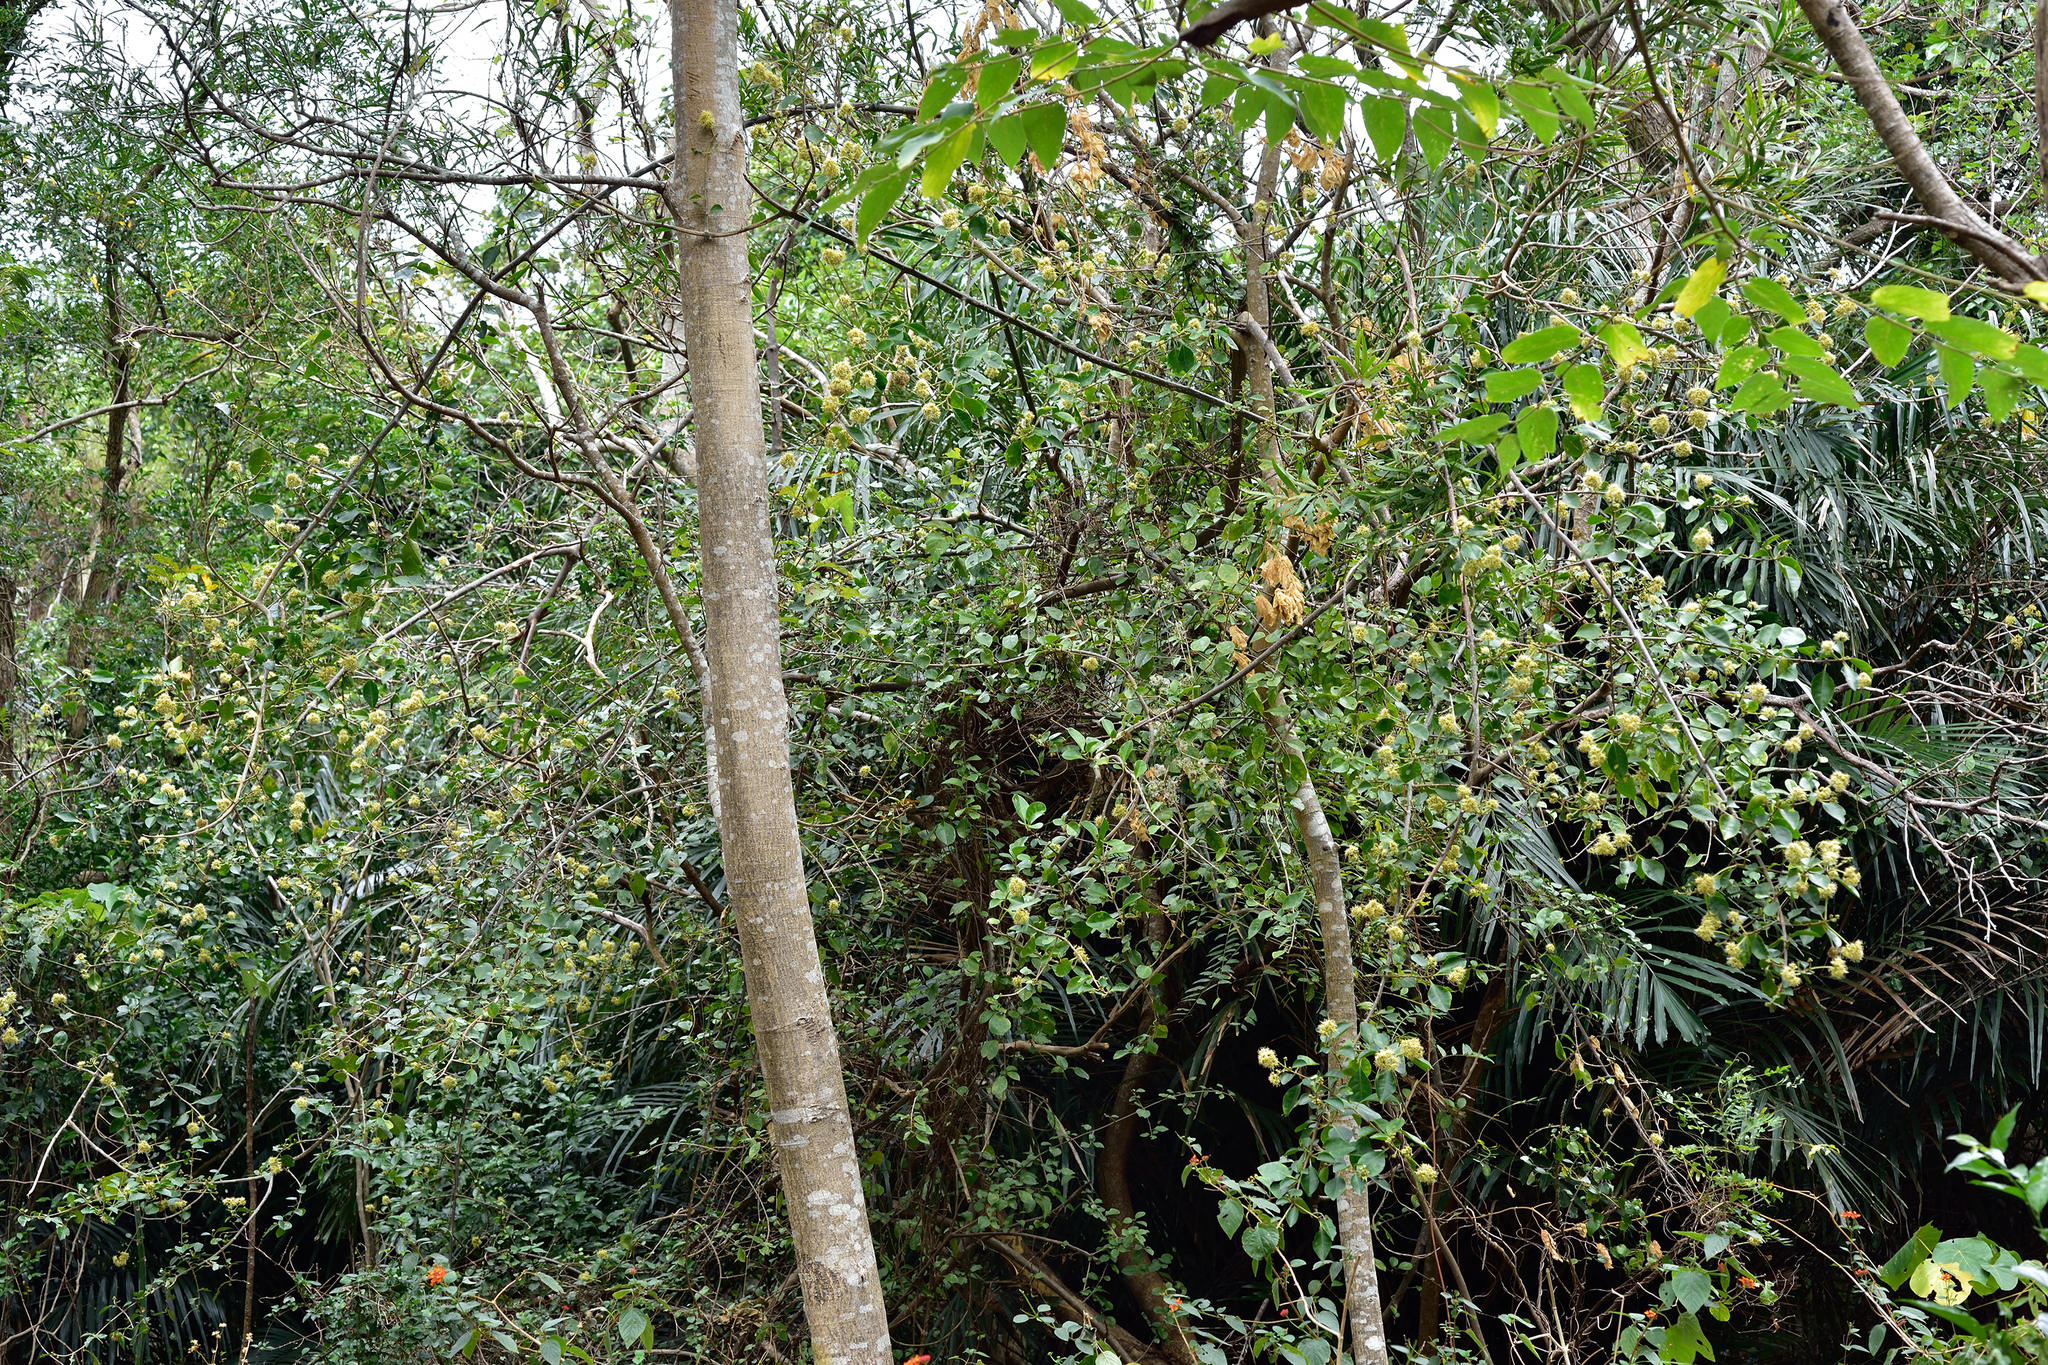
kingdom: Plantae
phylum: Tracheophyta
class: Magnoliopsida
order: Caryophyllales
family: Nyctaginaceae
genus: Pisonia
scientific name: Pisonia aculeata
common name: Cockspur vine
